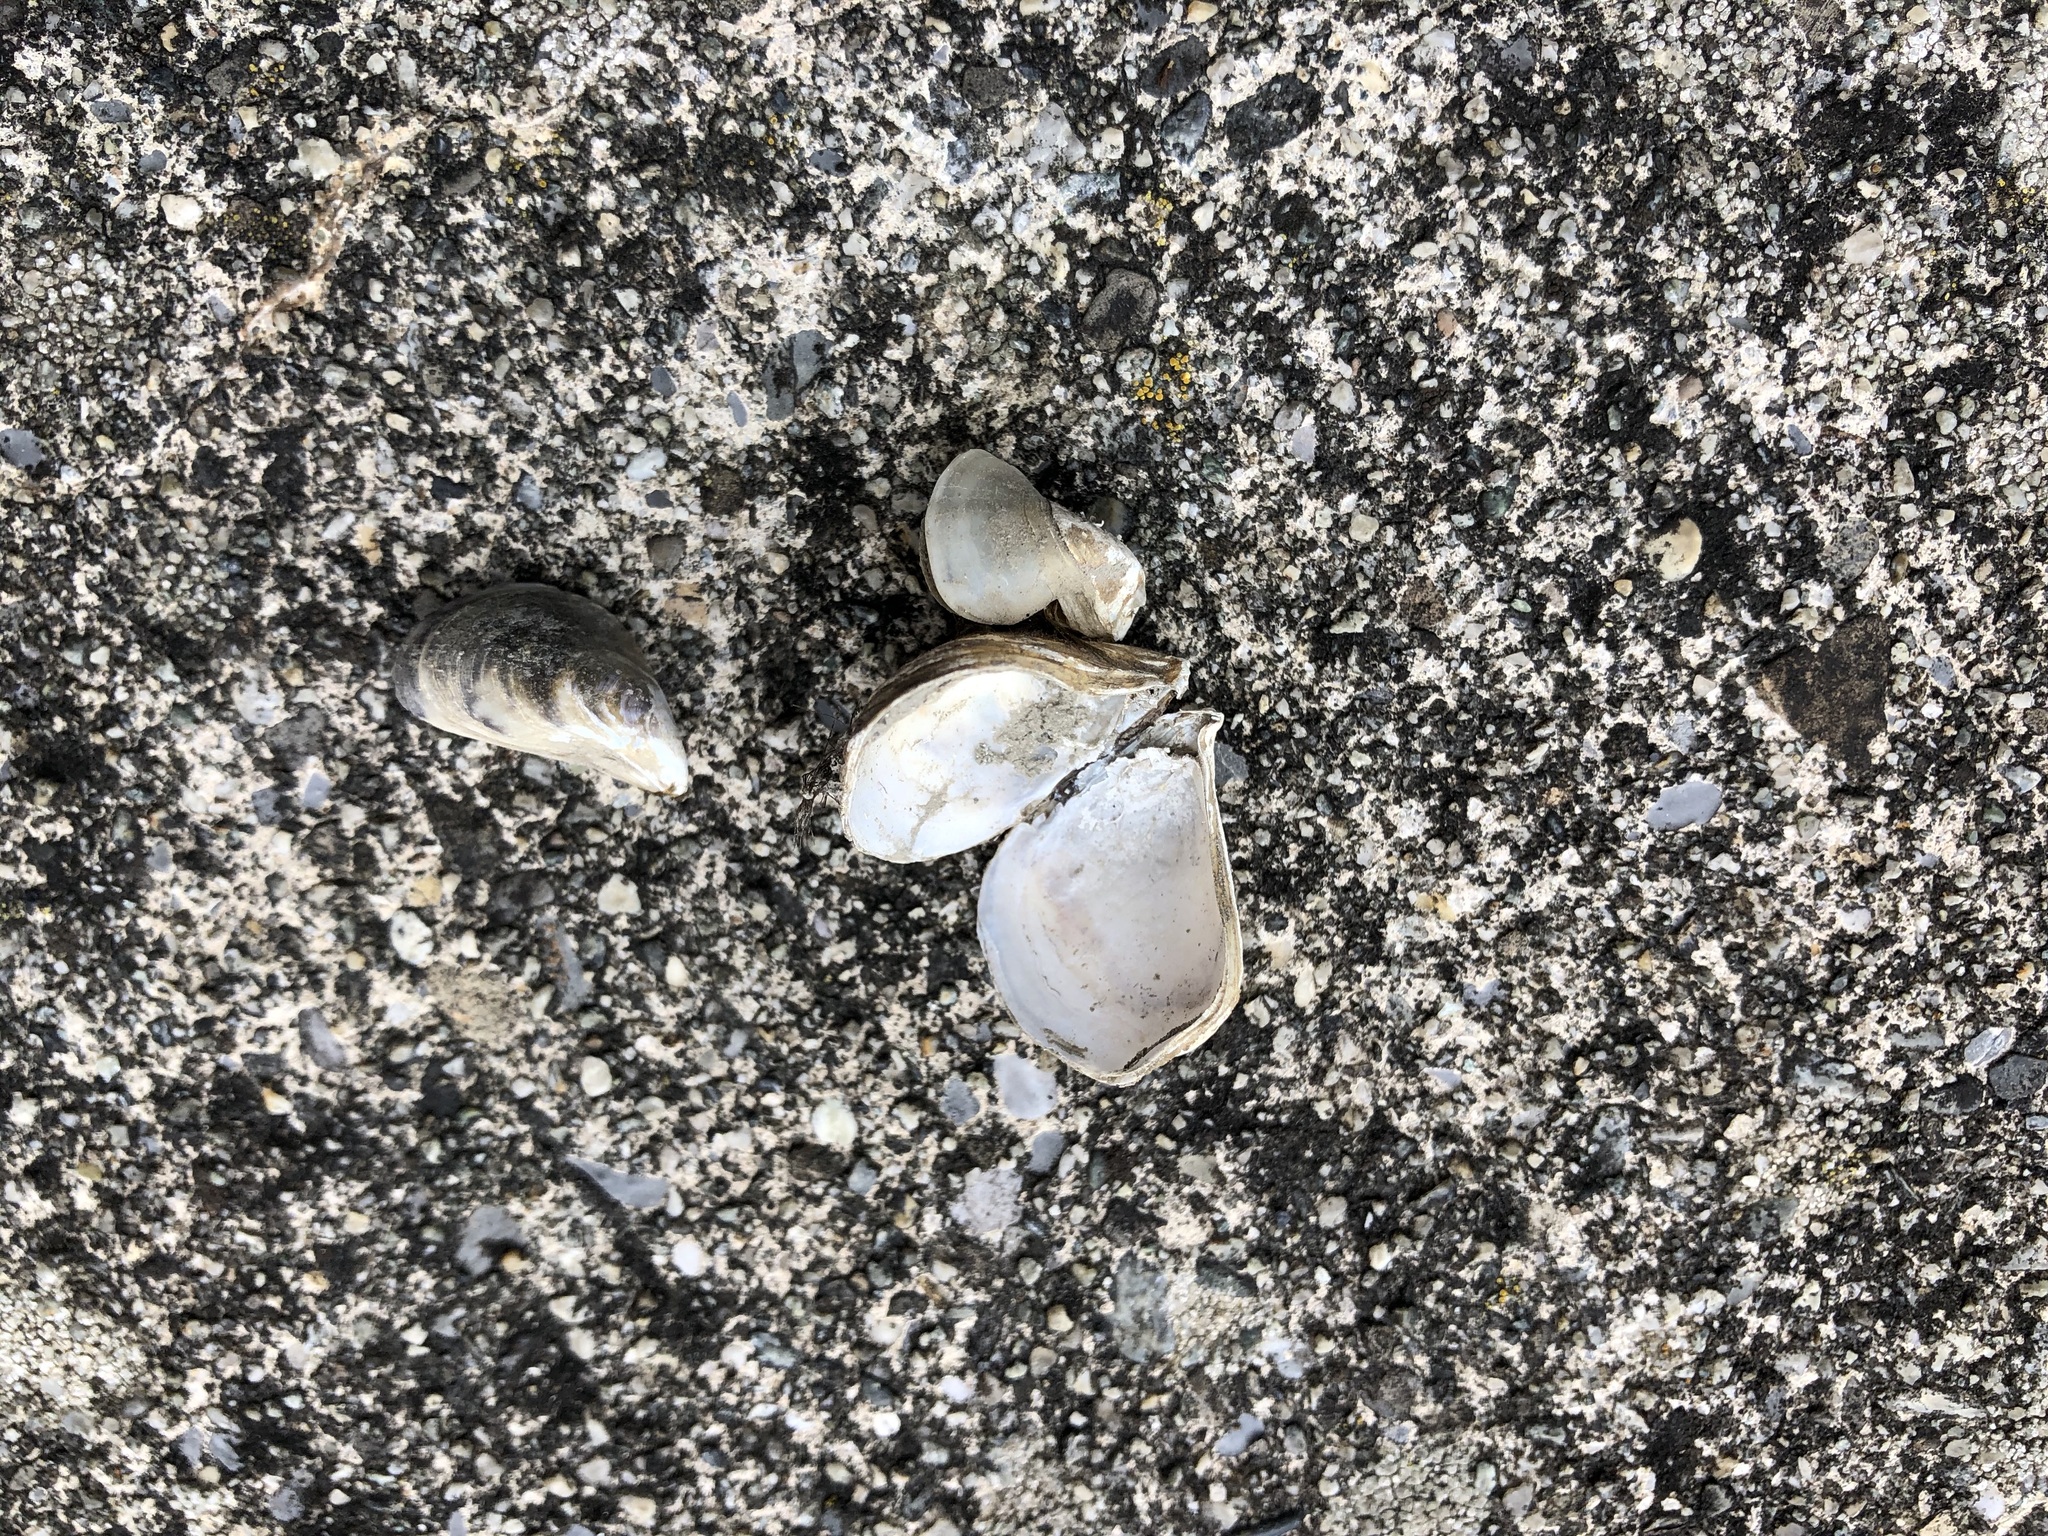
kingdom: Animalia
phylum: Mollusca
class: Bivalvia
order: Myida
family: Dreissenidae
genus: Dreissena
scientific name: Dreissena bugensis
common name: Quagga mussel
